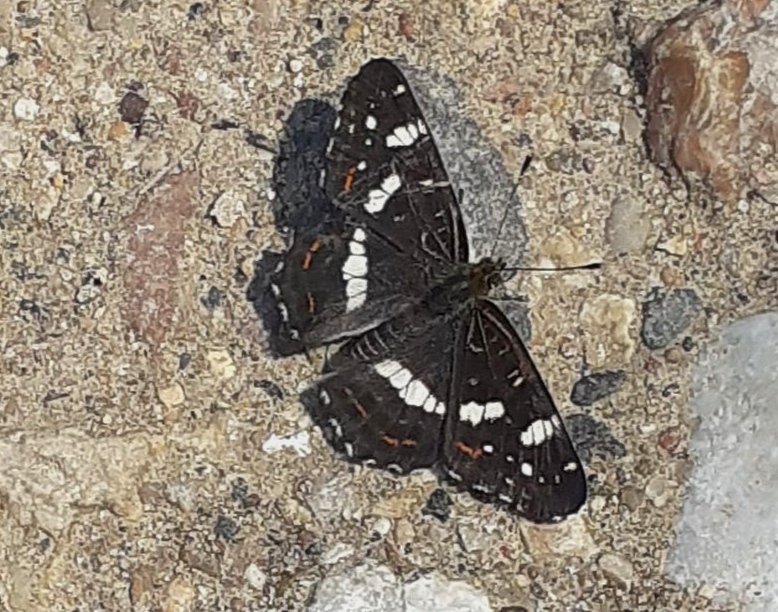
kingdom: Animalia
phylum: Arthropoda
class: Insecta
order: Lepidoptera
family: Nymphalidae
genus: Araschnia
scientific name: Araschnia levana
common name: Map butterfly
